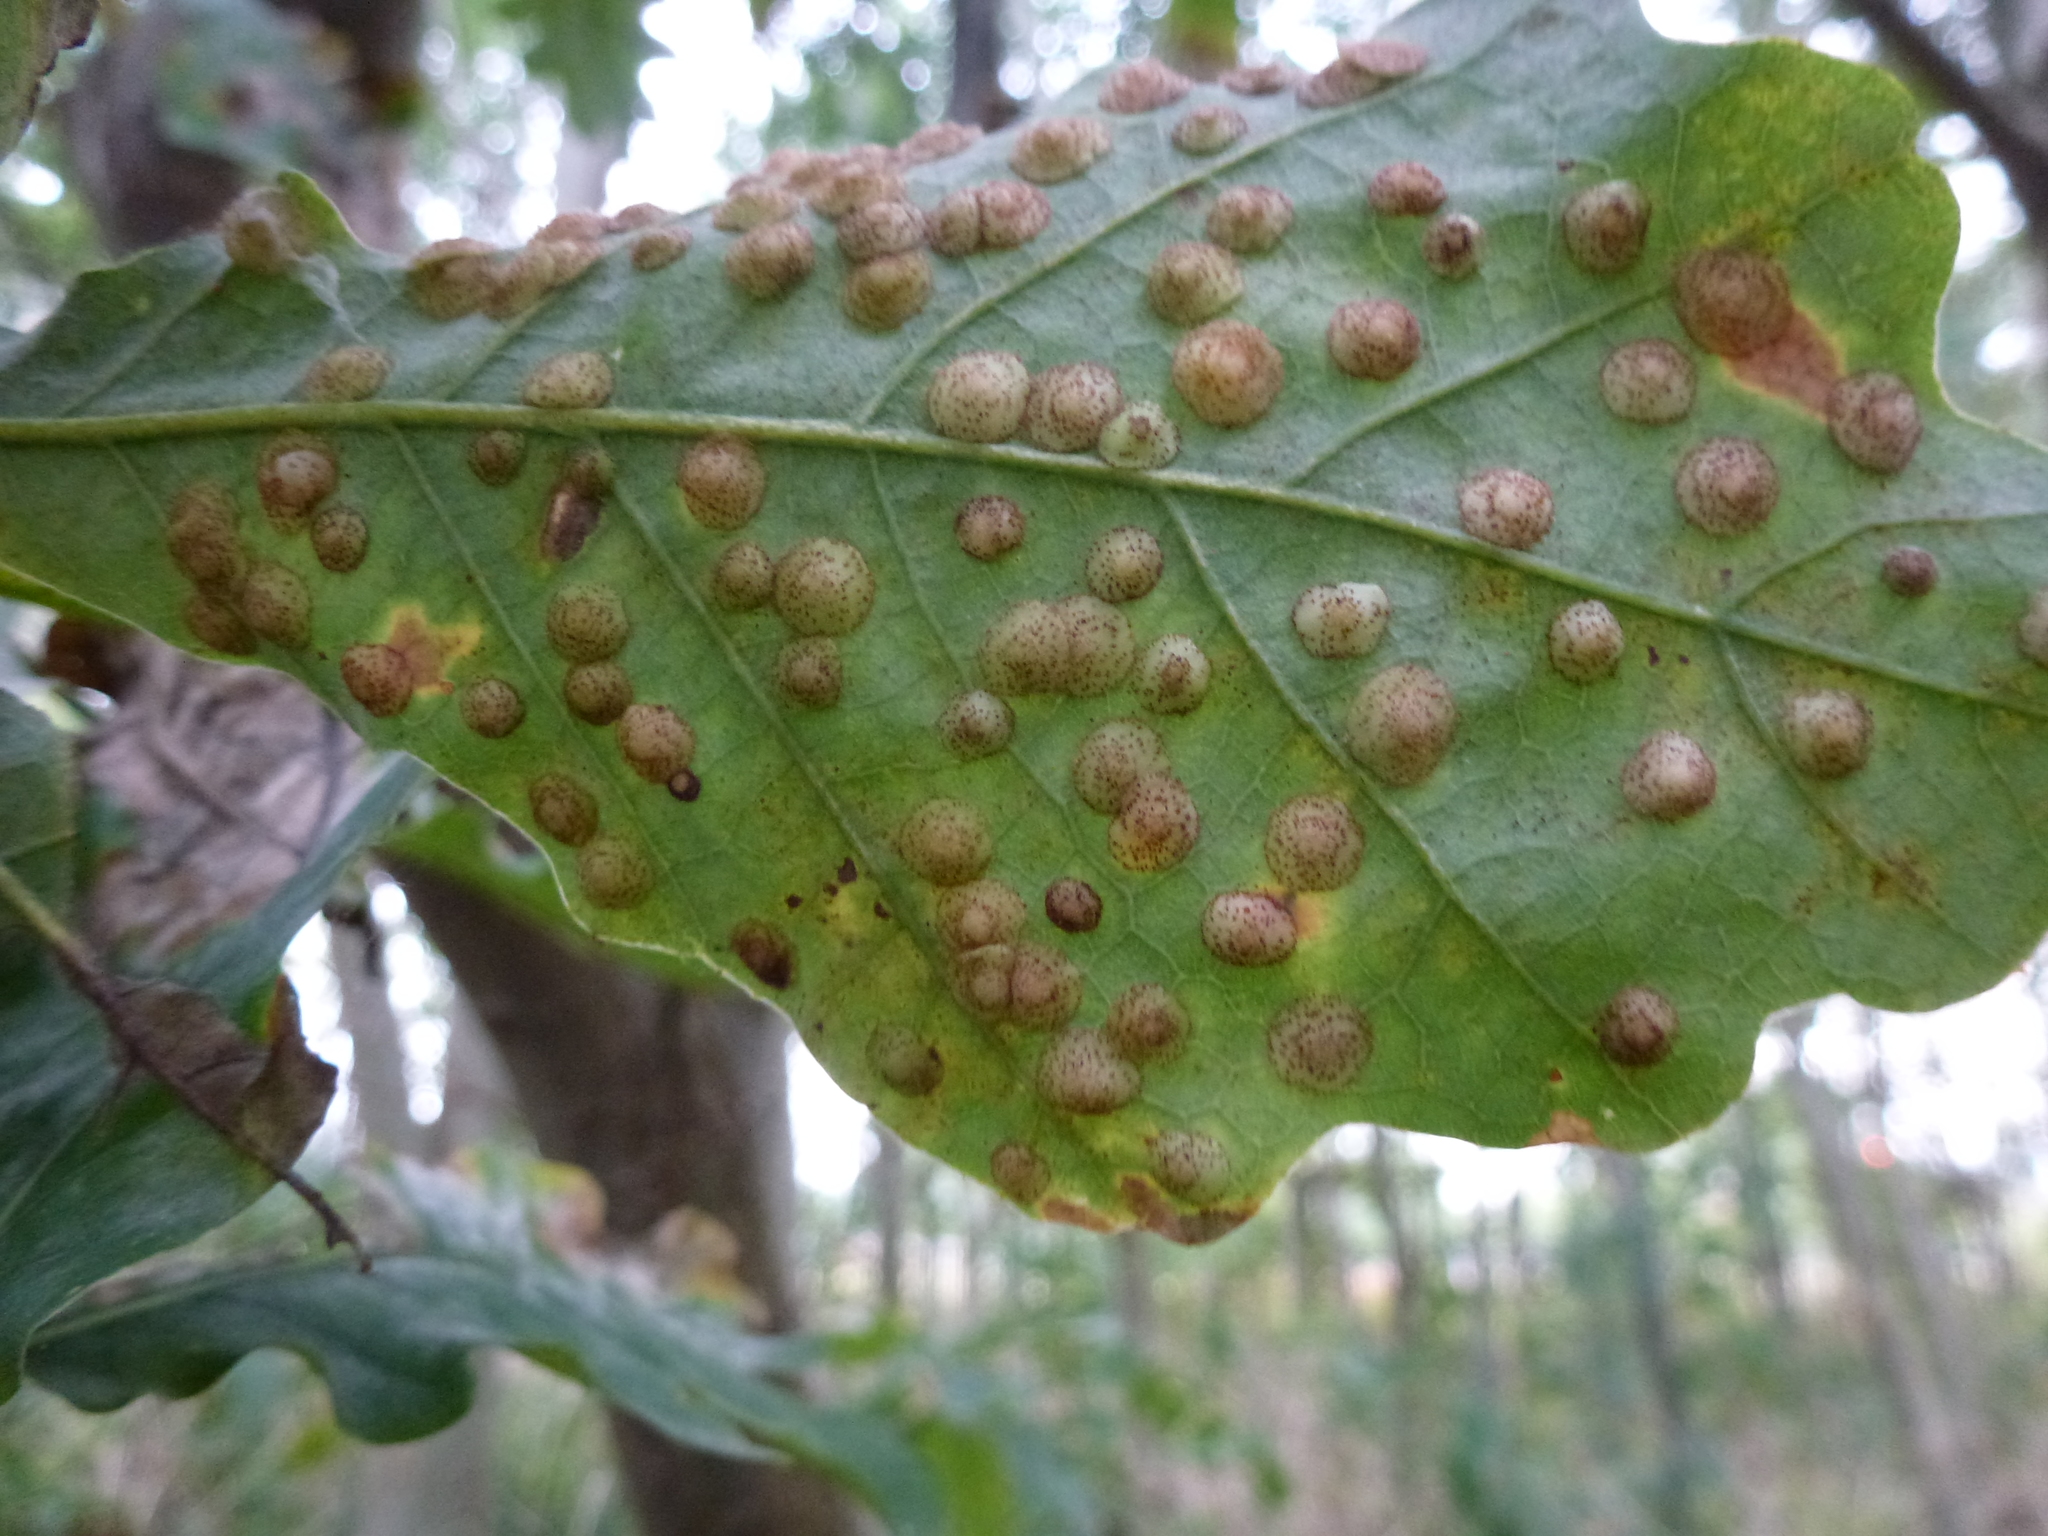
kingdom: Animalia
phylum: Arthropoda
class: Insecta
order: Hymenoptera
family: Cynipidae
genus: Neuroterus
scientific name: Neuroterus quercusbaccarum
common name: Common spangle gall
